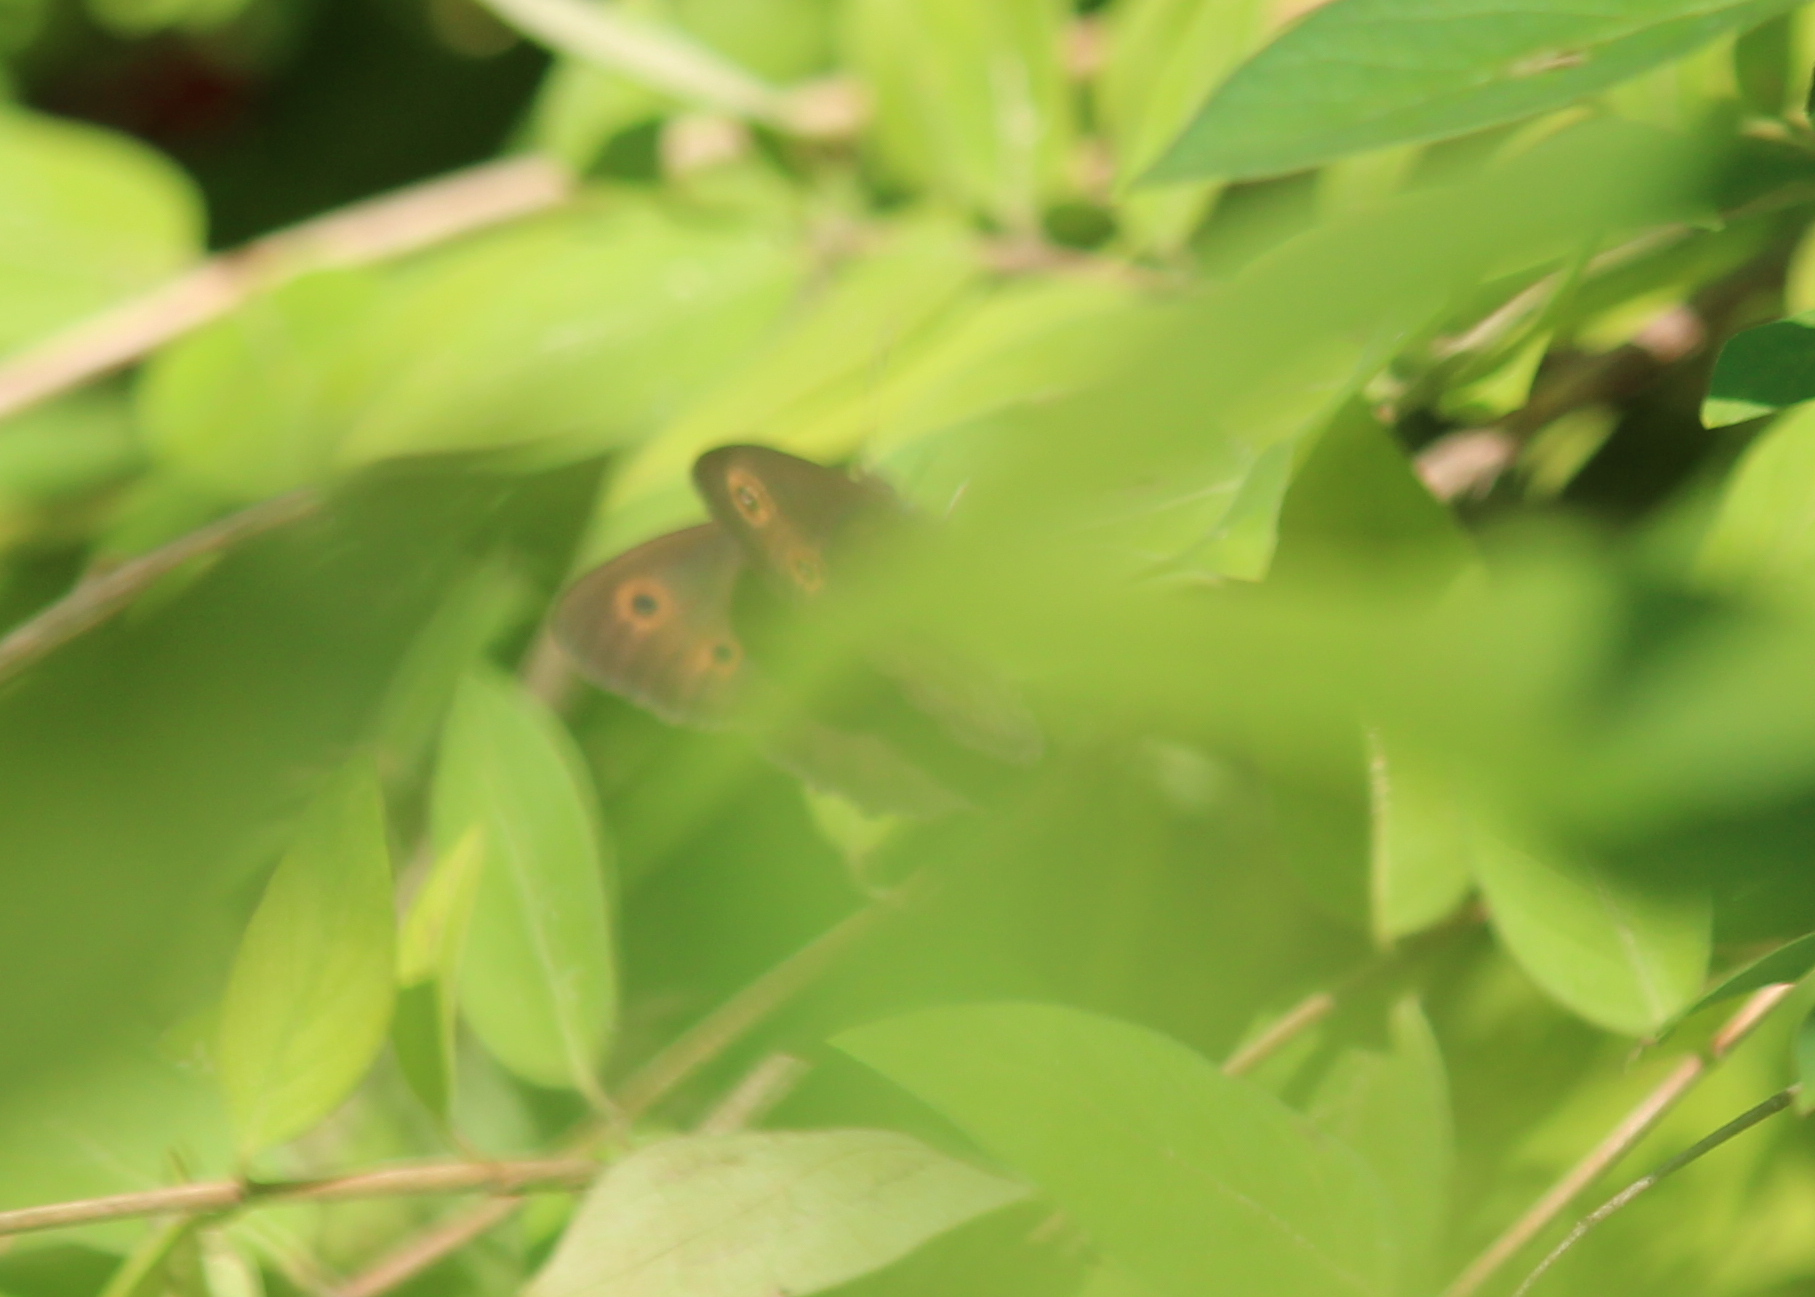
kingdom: Animalia
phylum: Arthropoda
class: Insecta
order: Lepidoptera
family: Nymphalidae
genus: Cercyonis
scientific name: Cercyonis pegala
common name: Common wood-nymph
